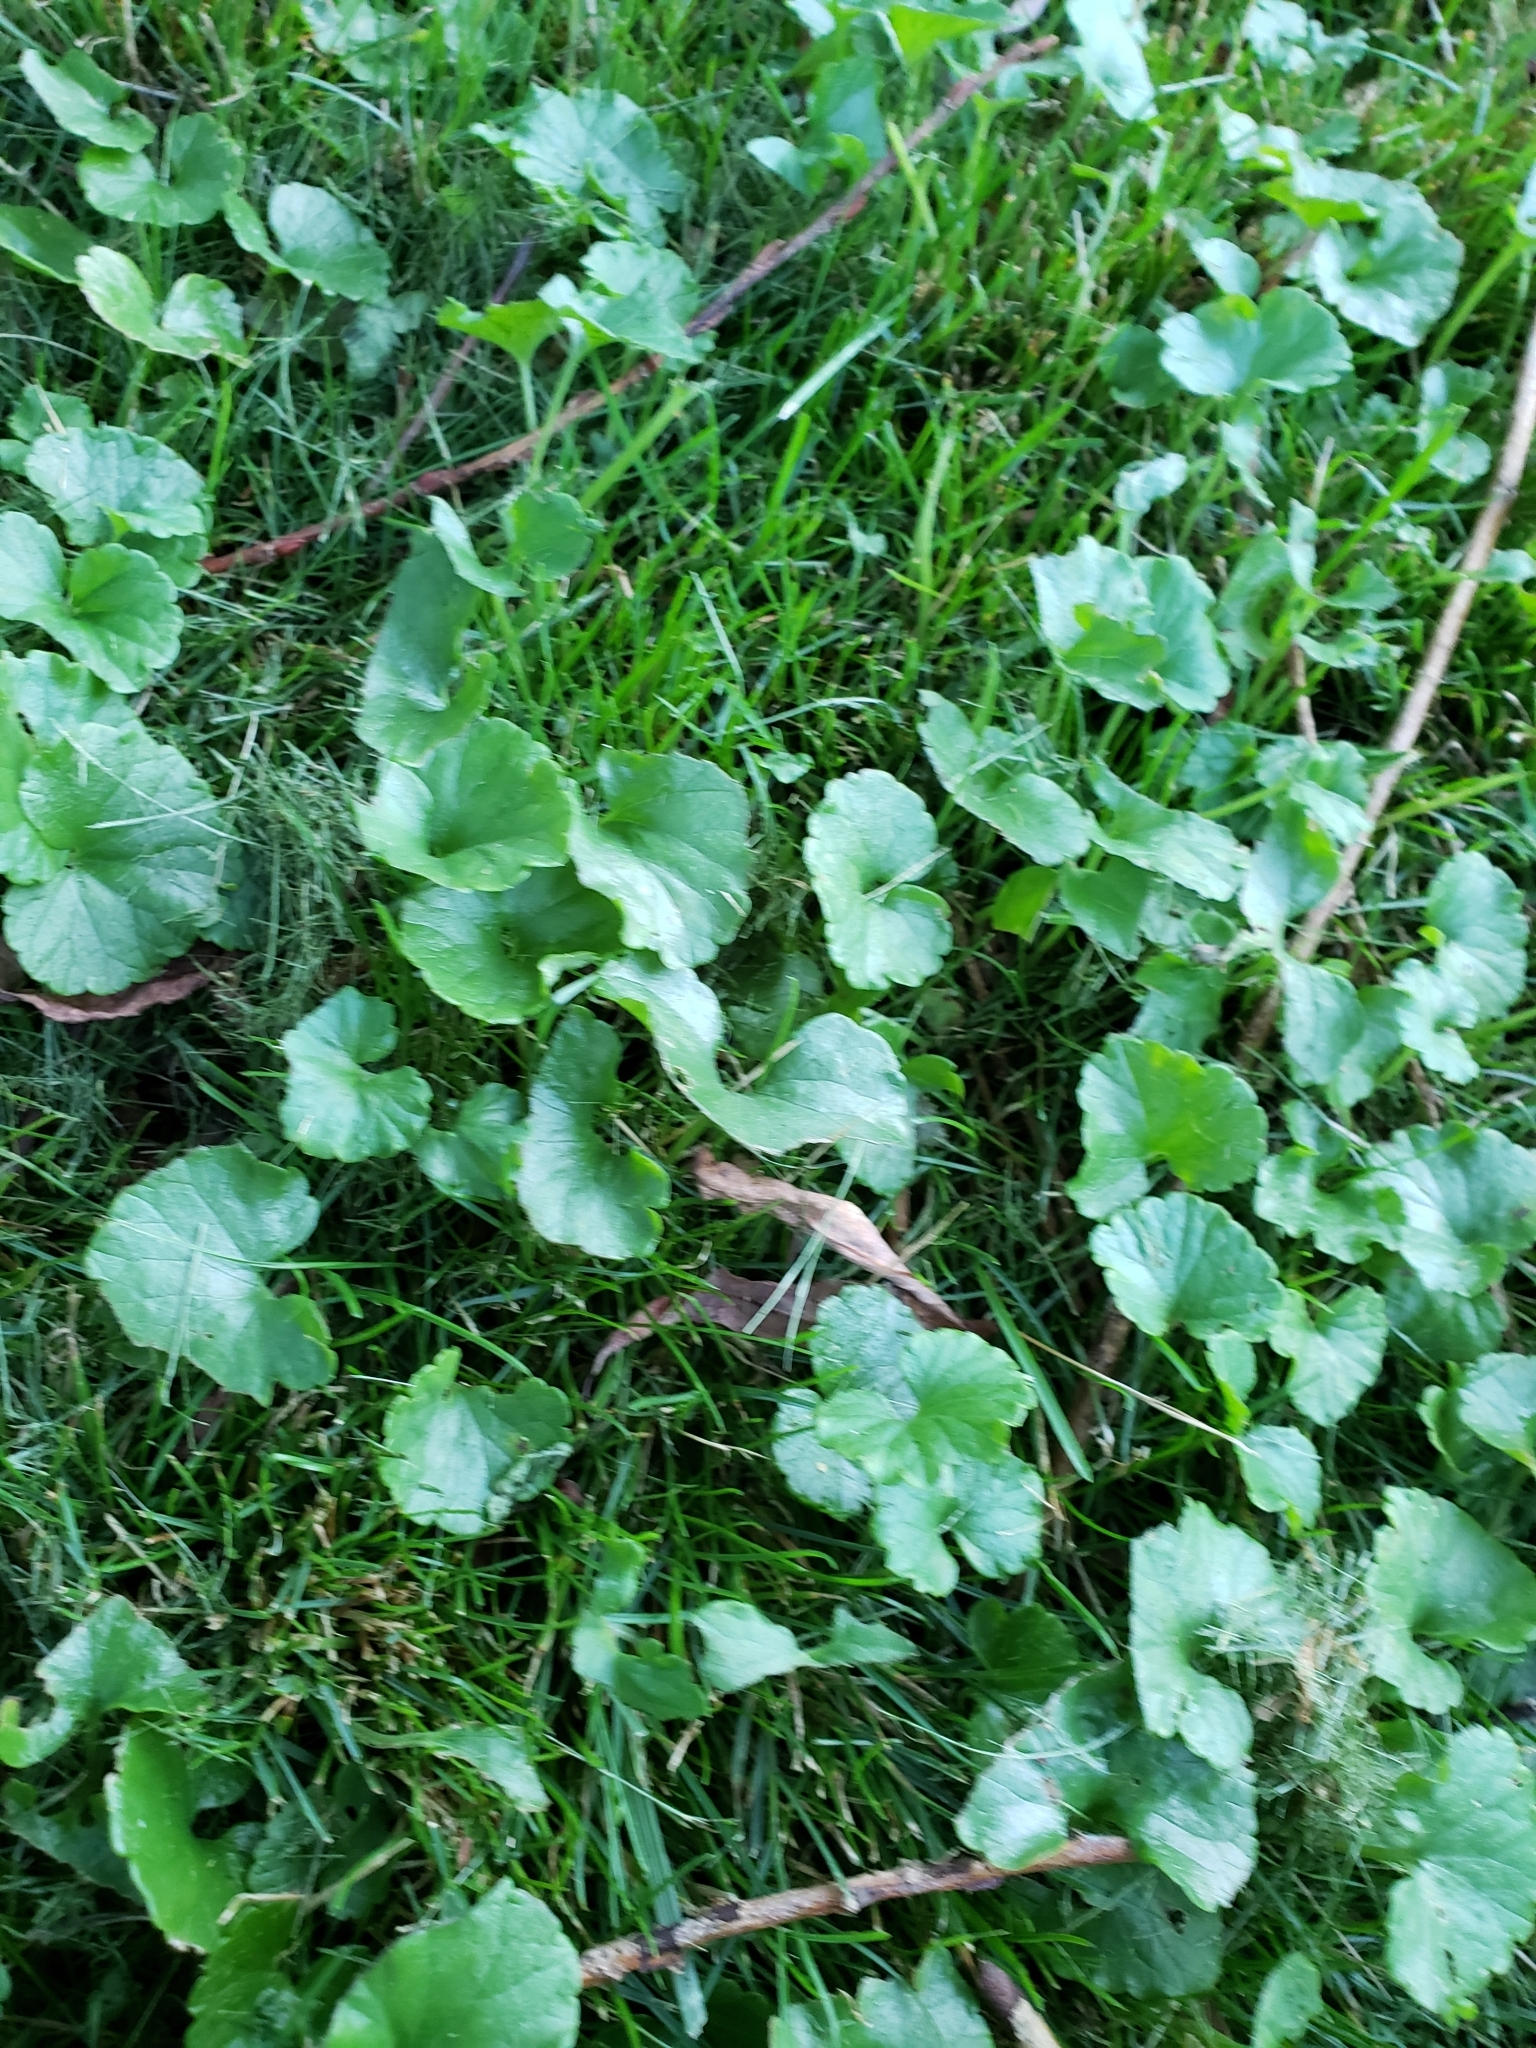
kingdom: Plantae
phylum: Tracheophyta
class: Magnoliopsida
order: Lamiales
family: Lamiaceae
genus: Glechoma
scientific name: Glechoma hederacea
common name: Ground ivy
